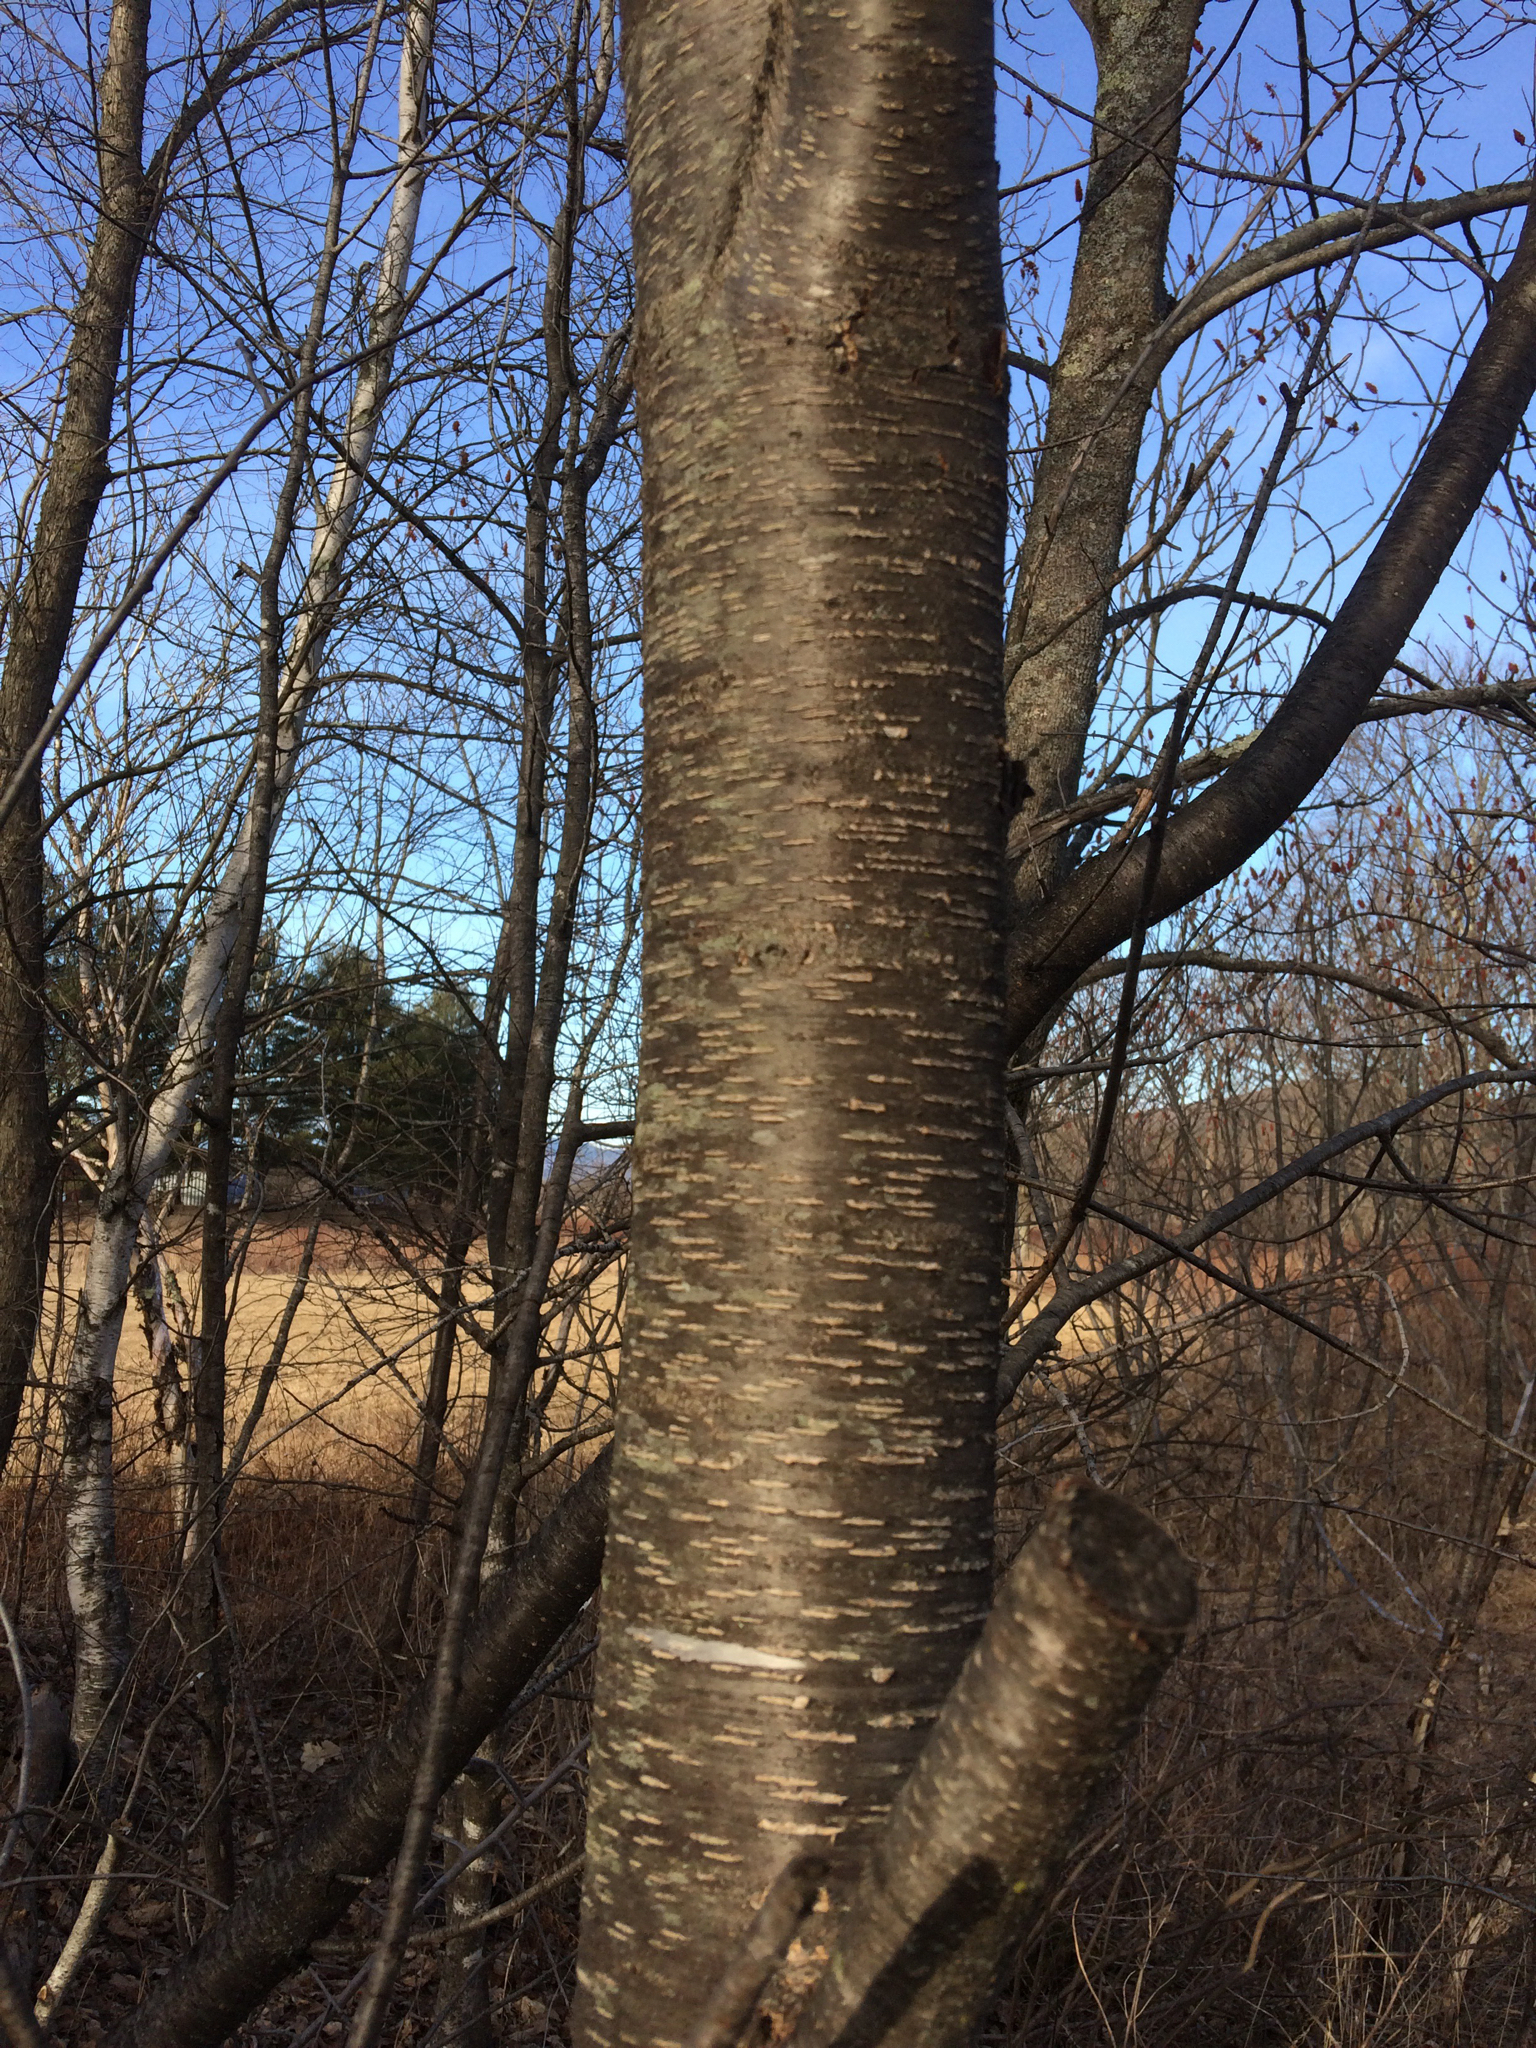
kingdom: Plantae
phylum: Tracheophyta
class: Magnoliopsida
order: Rosales
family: Rosaceae
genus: Prunus
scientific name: Prunus pensylvanica
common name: Pin cherry
